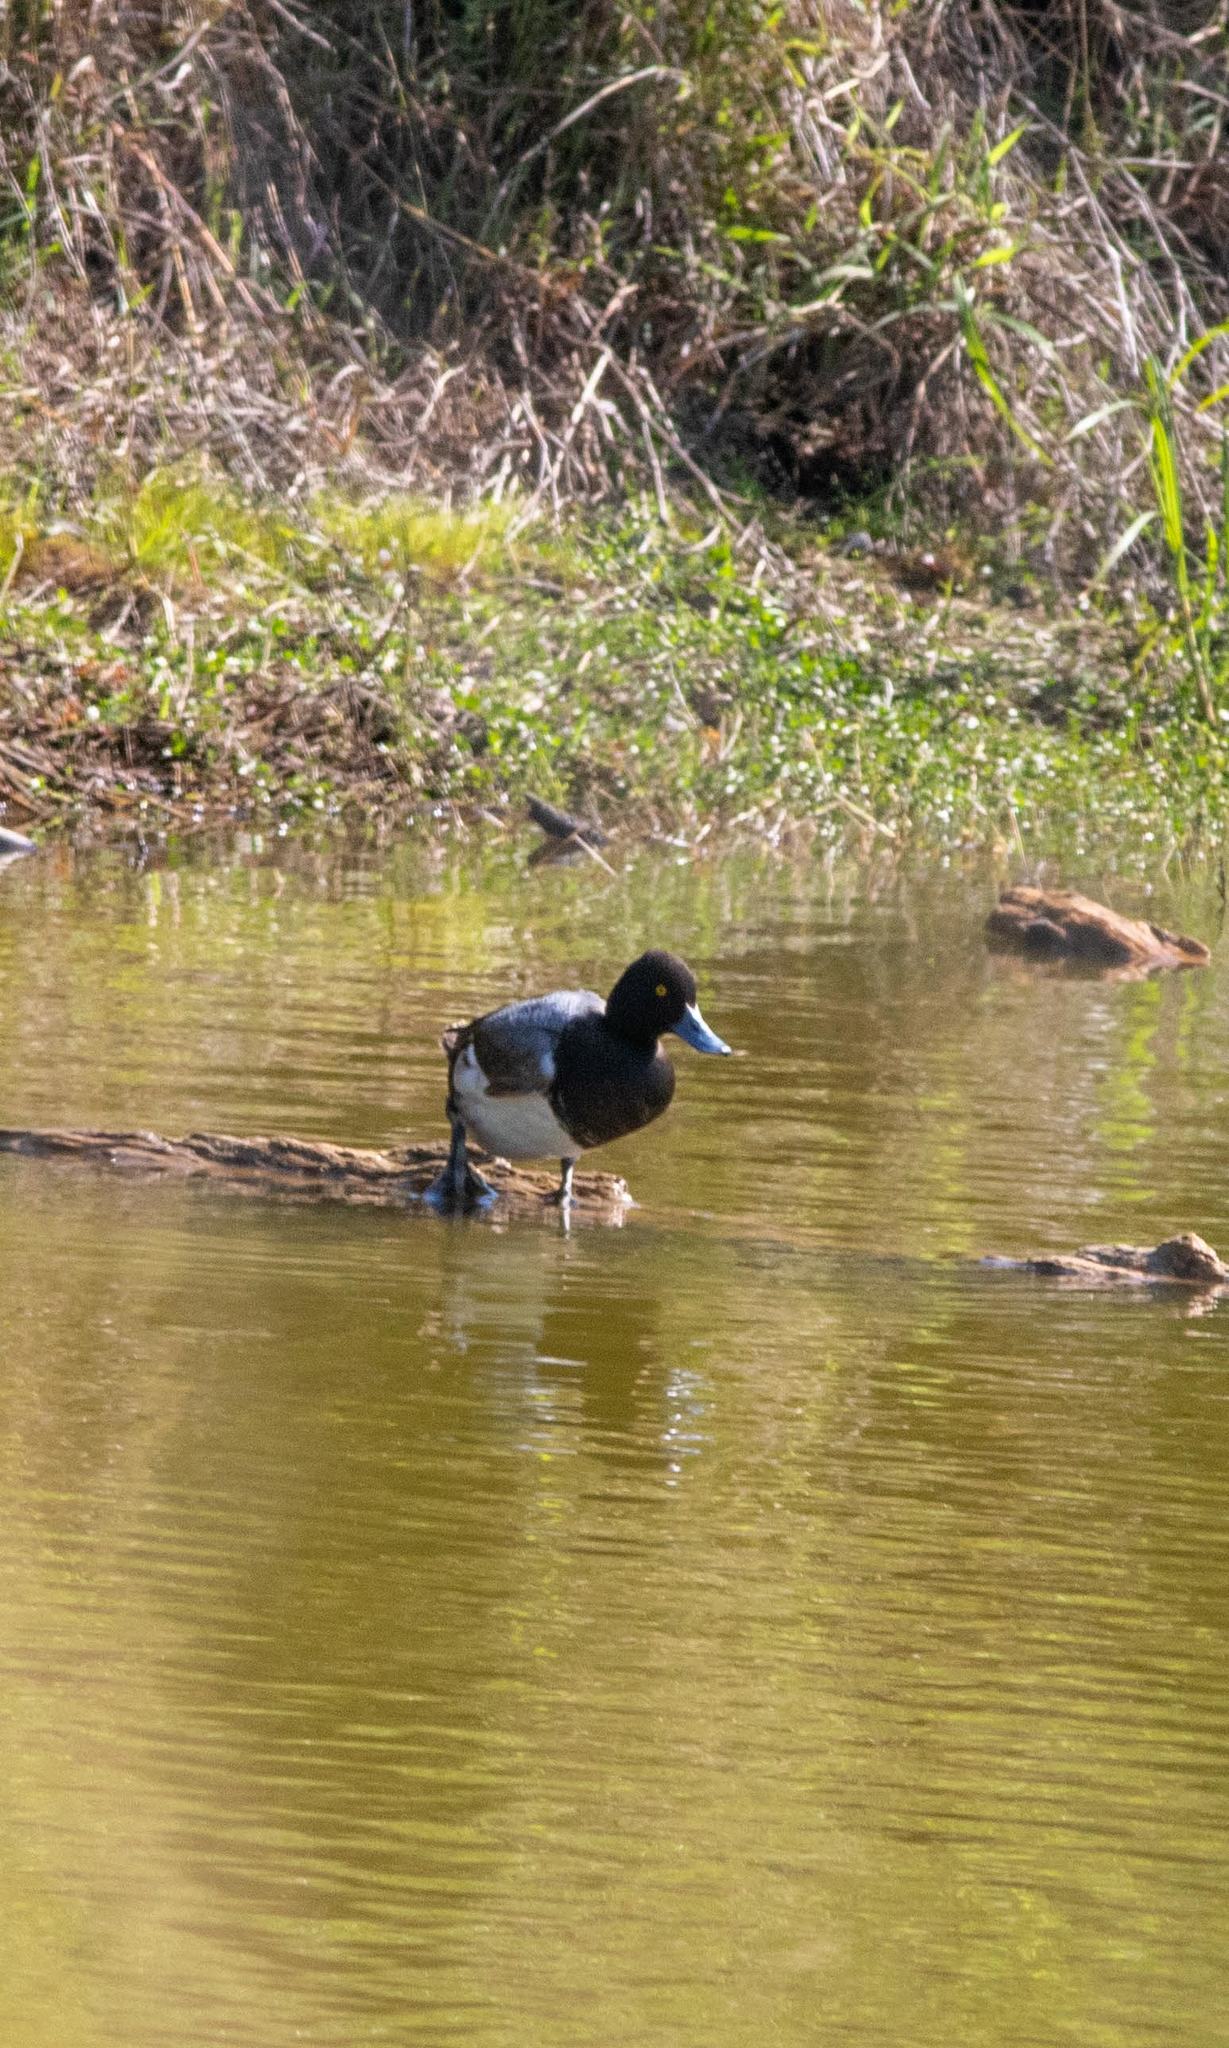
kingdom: Animalia
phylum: Chordata
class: Aves
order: Anseriformes
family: Anatidae
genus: Aythya
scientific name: Aythya affinis
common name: Lesser scaup
